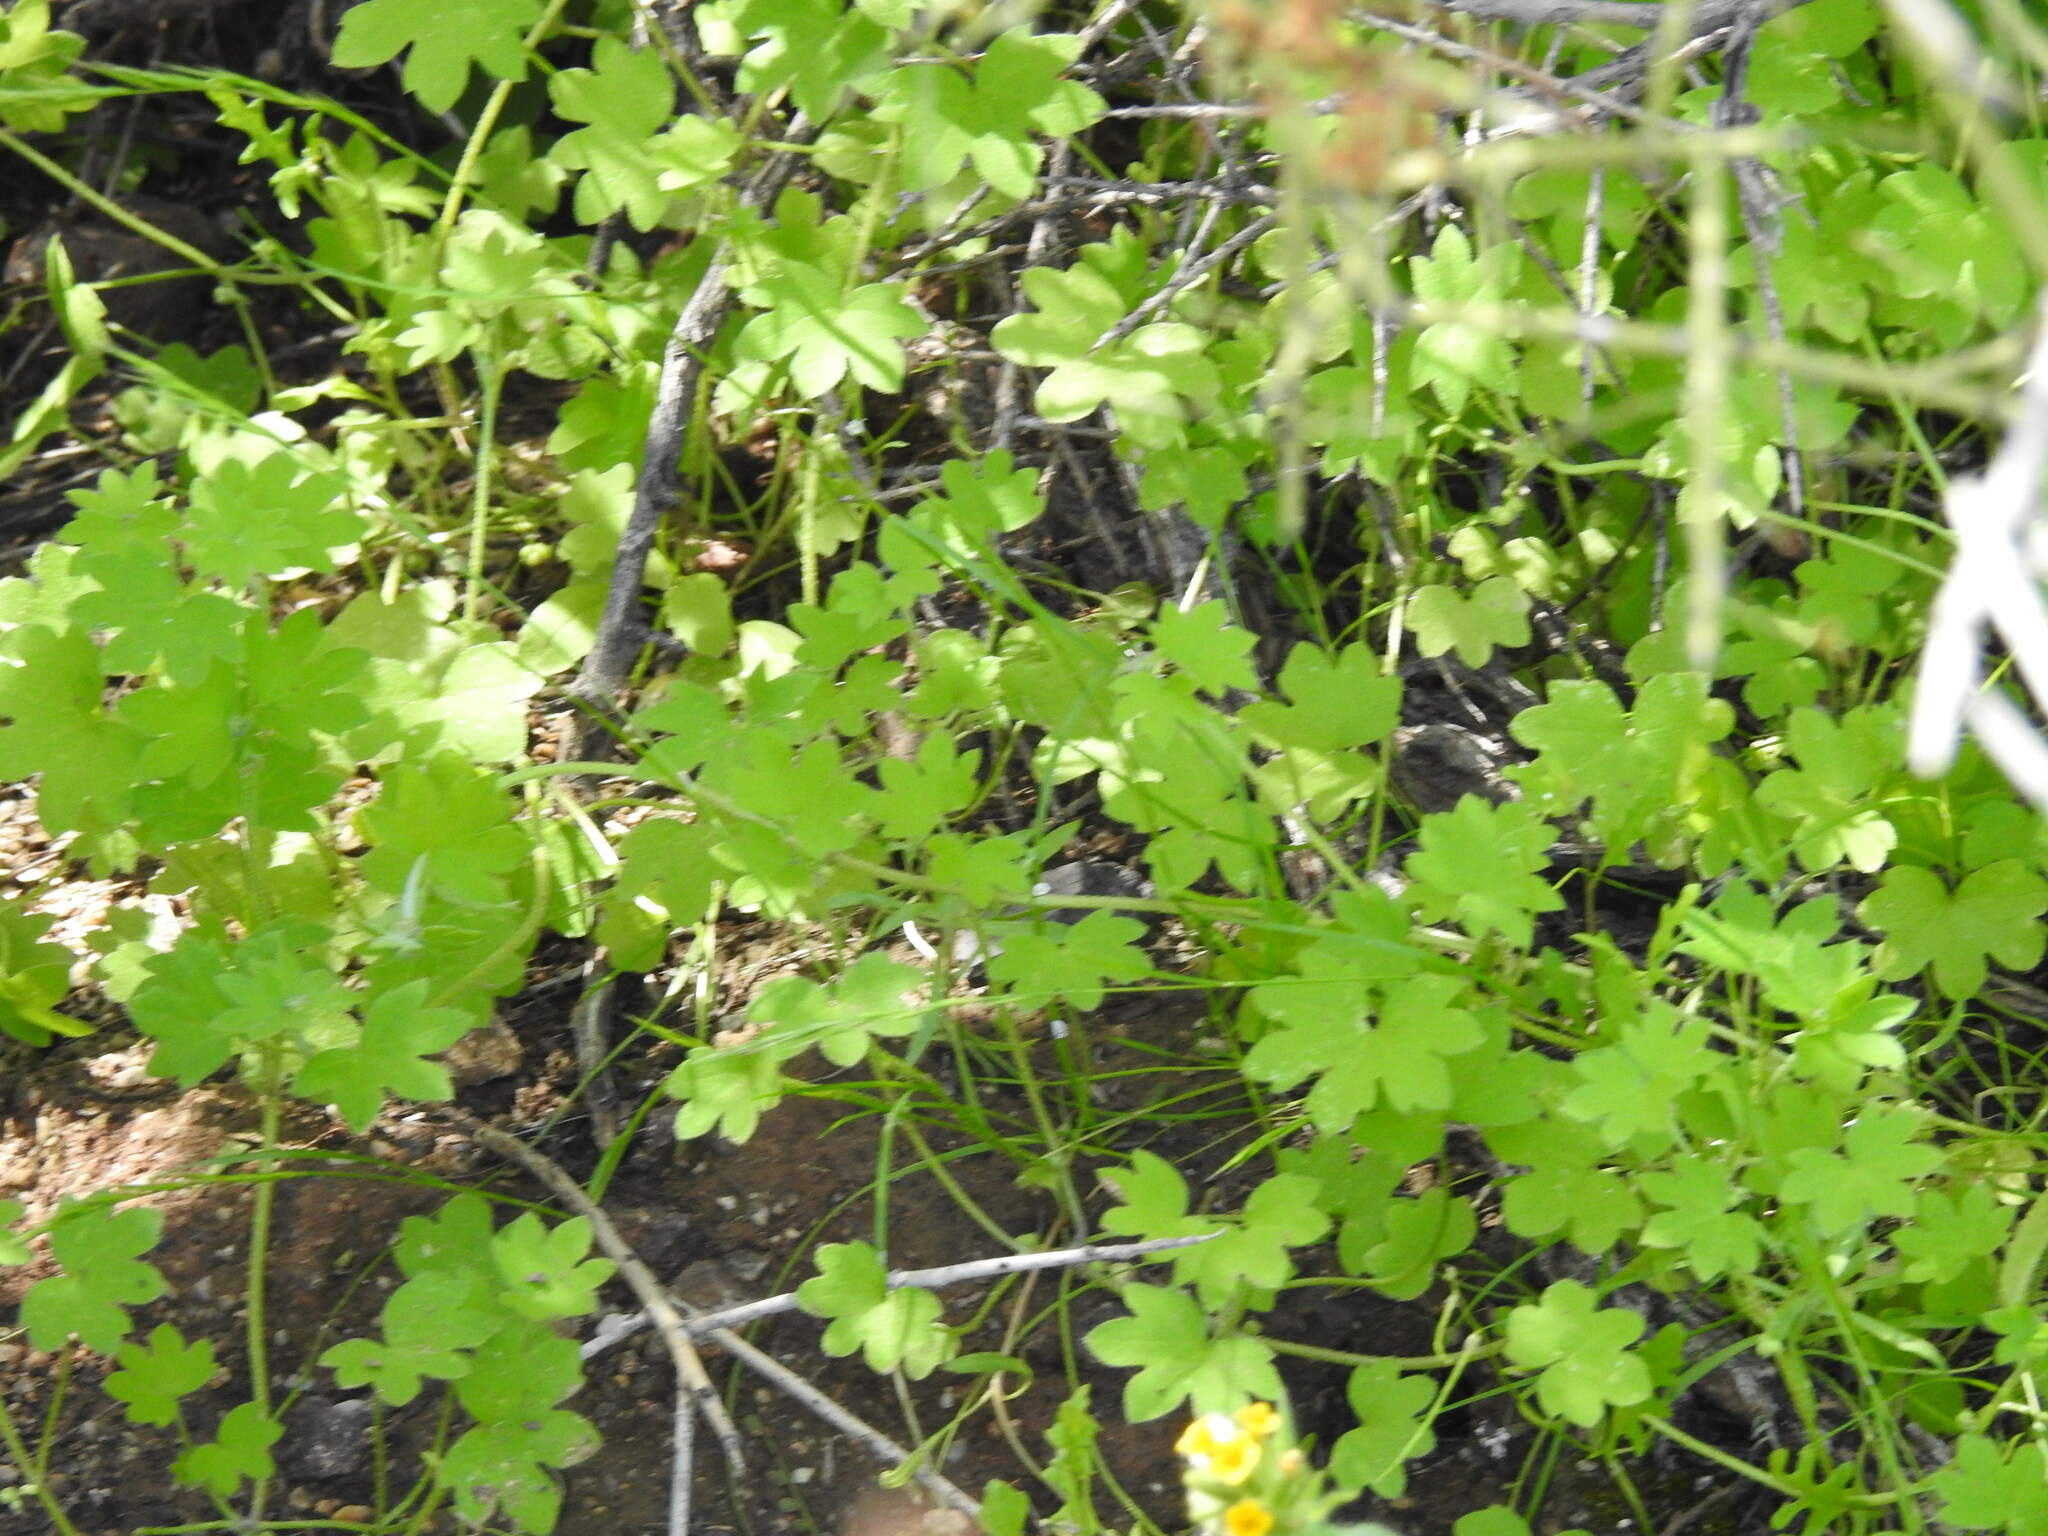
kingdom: Plantae
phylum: Tracheophyta
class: Magnoliopsida
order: Apiales
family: Apiaceae
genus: Bowlesia
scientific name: Bowlesia incana
